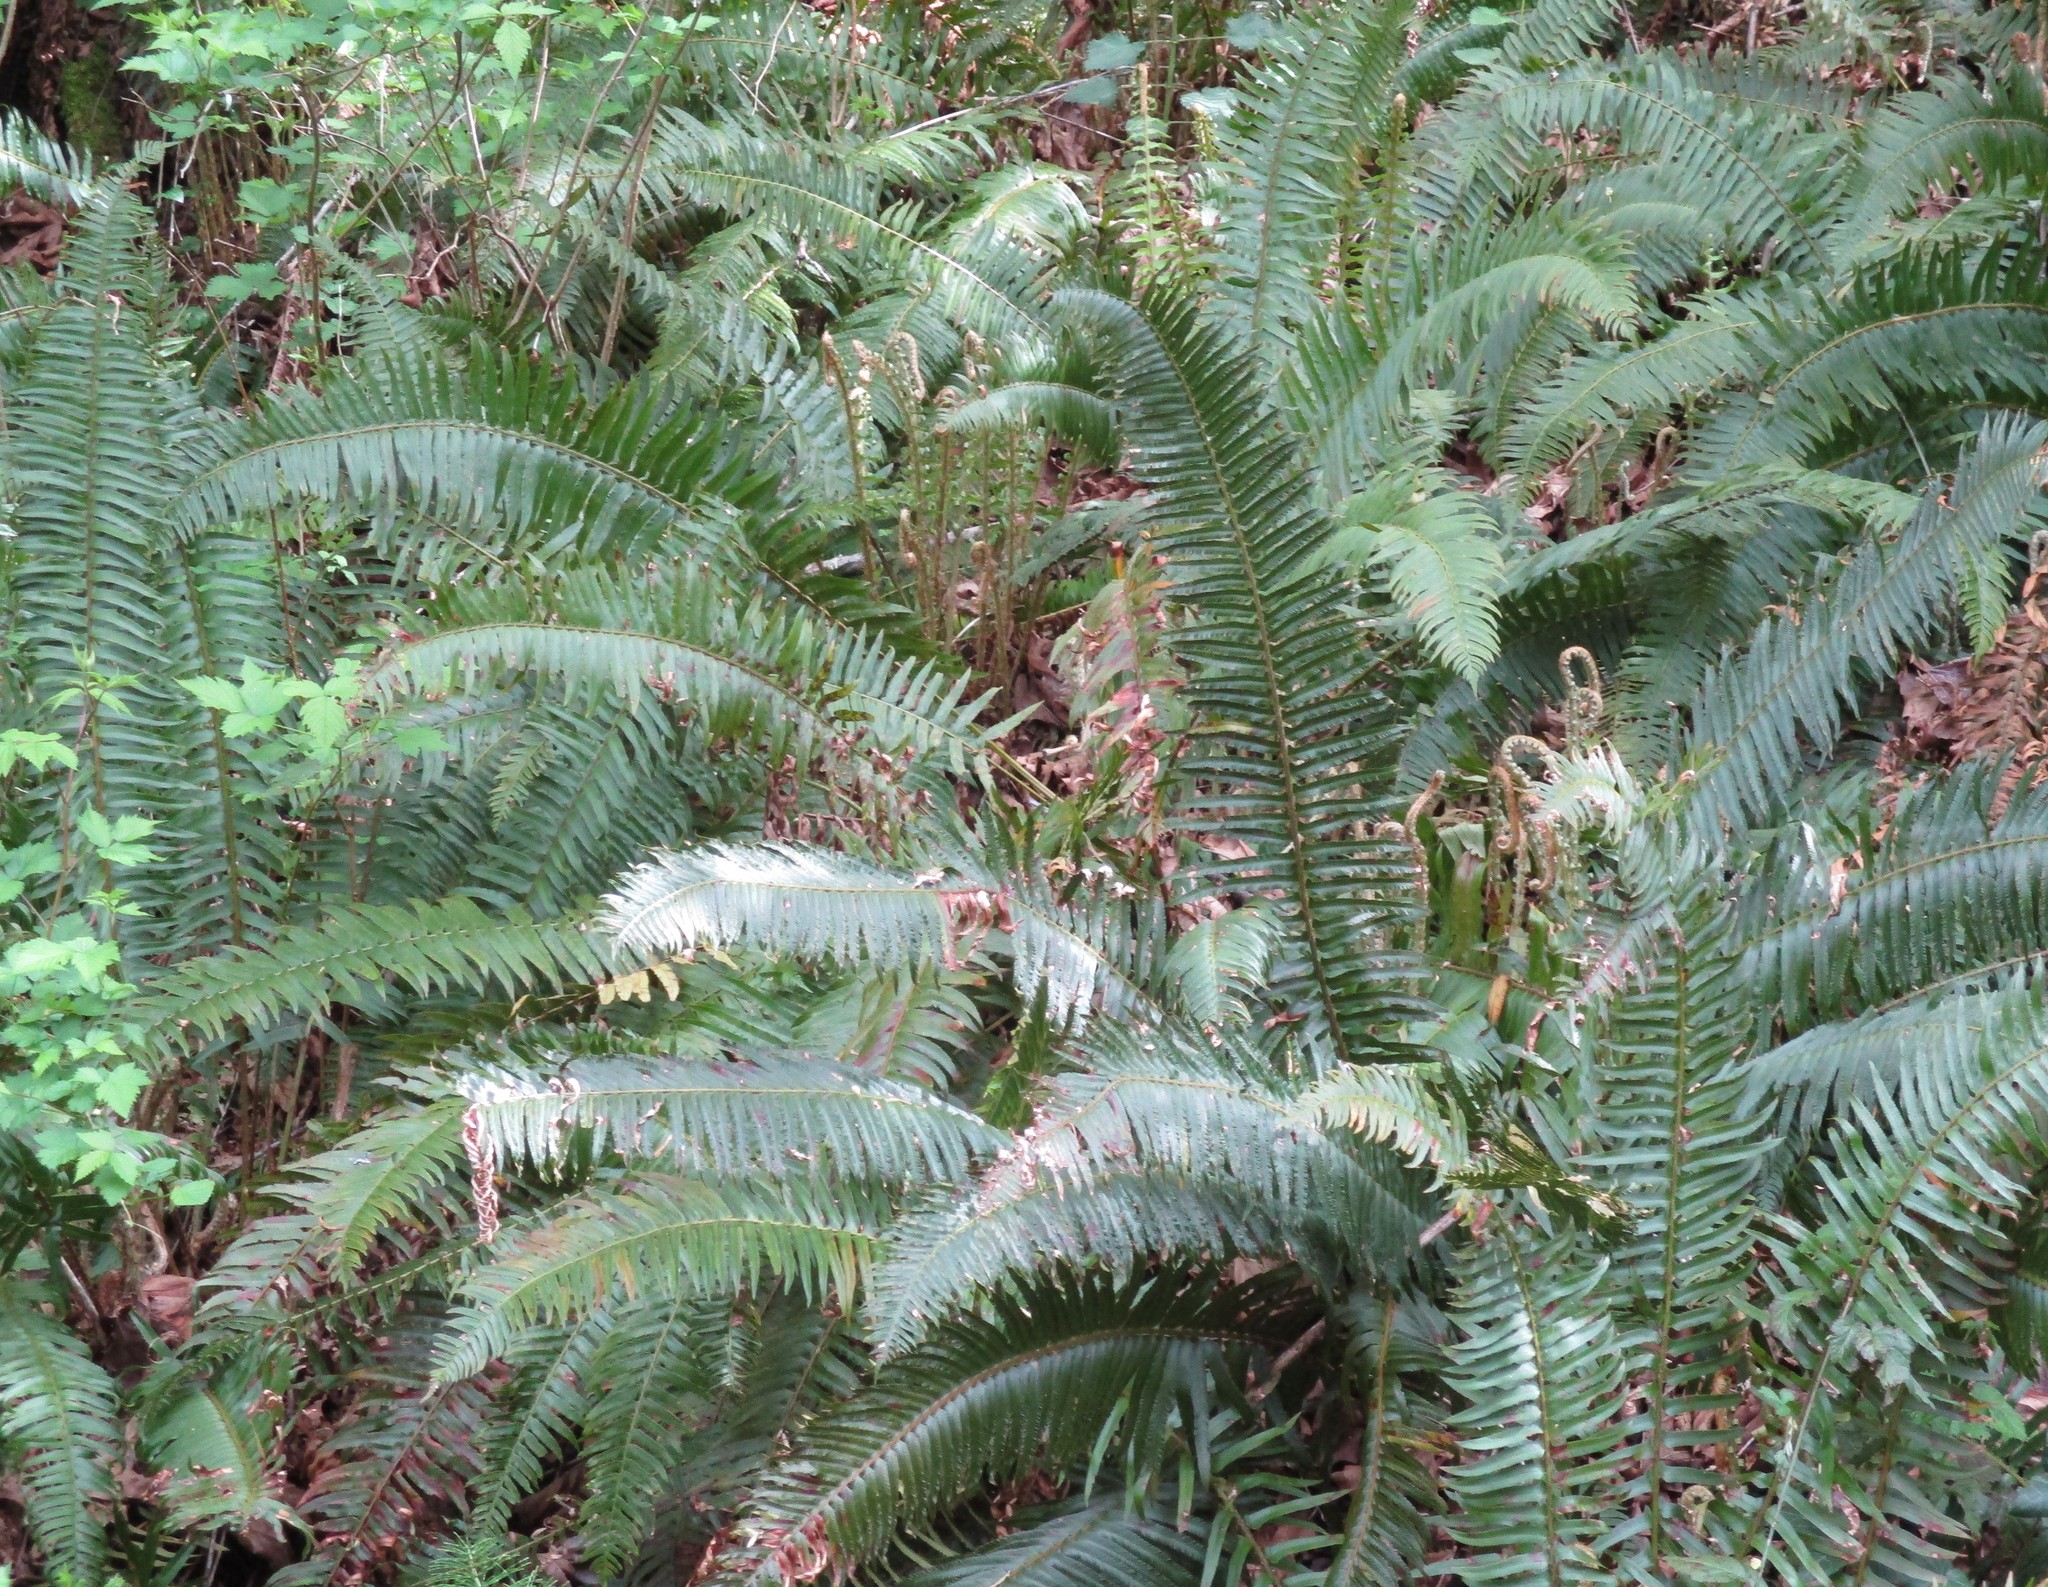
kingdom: Plantae
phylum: Tracheophyta
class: Polypodiopsida
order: Polypodiales
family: Dryopteridaceae
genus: Polystichum
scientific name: Polystichum munitum
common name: Western sword-fern
